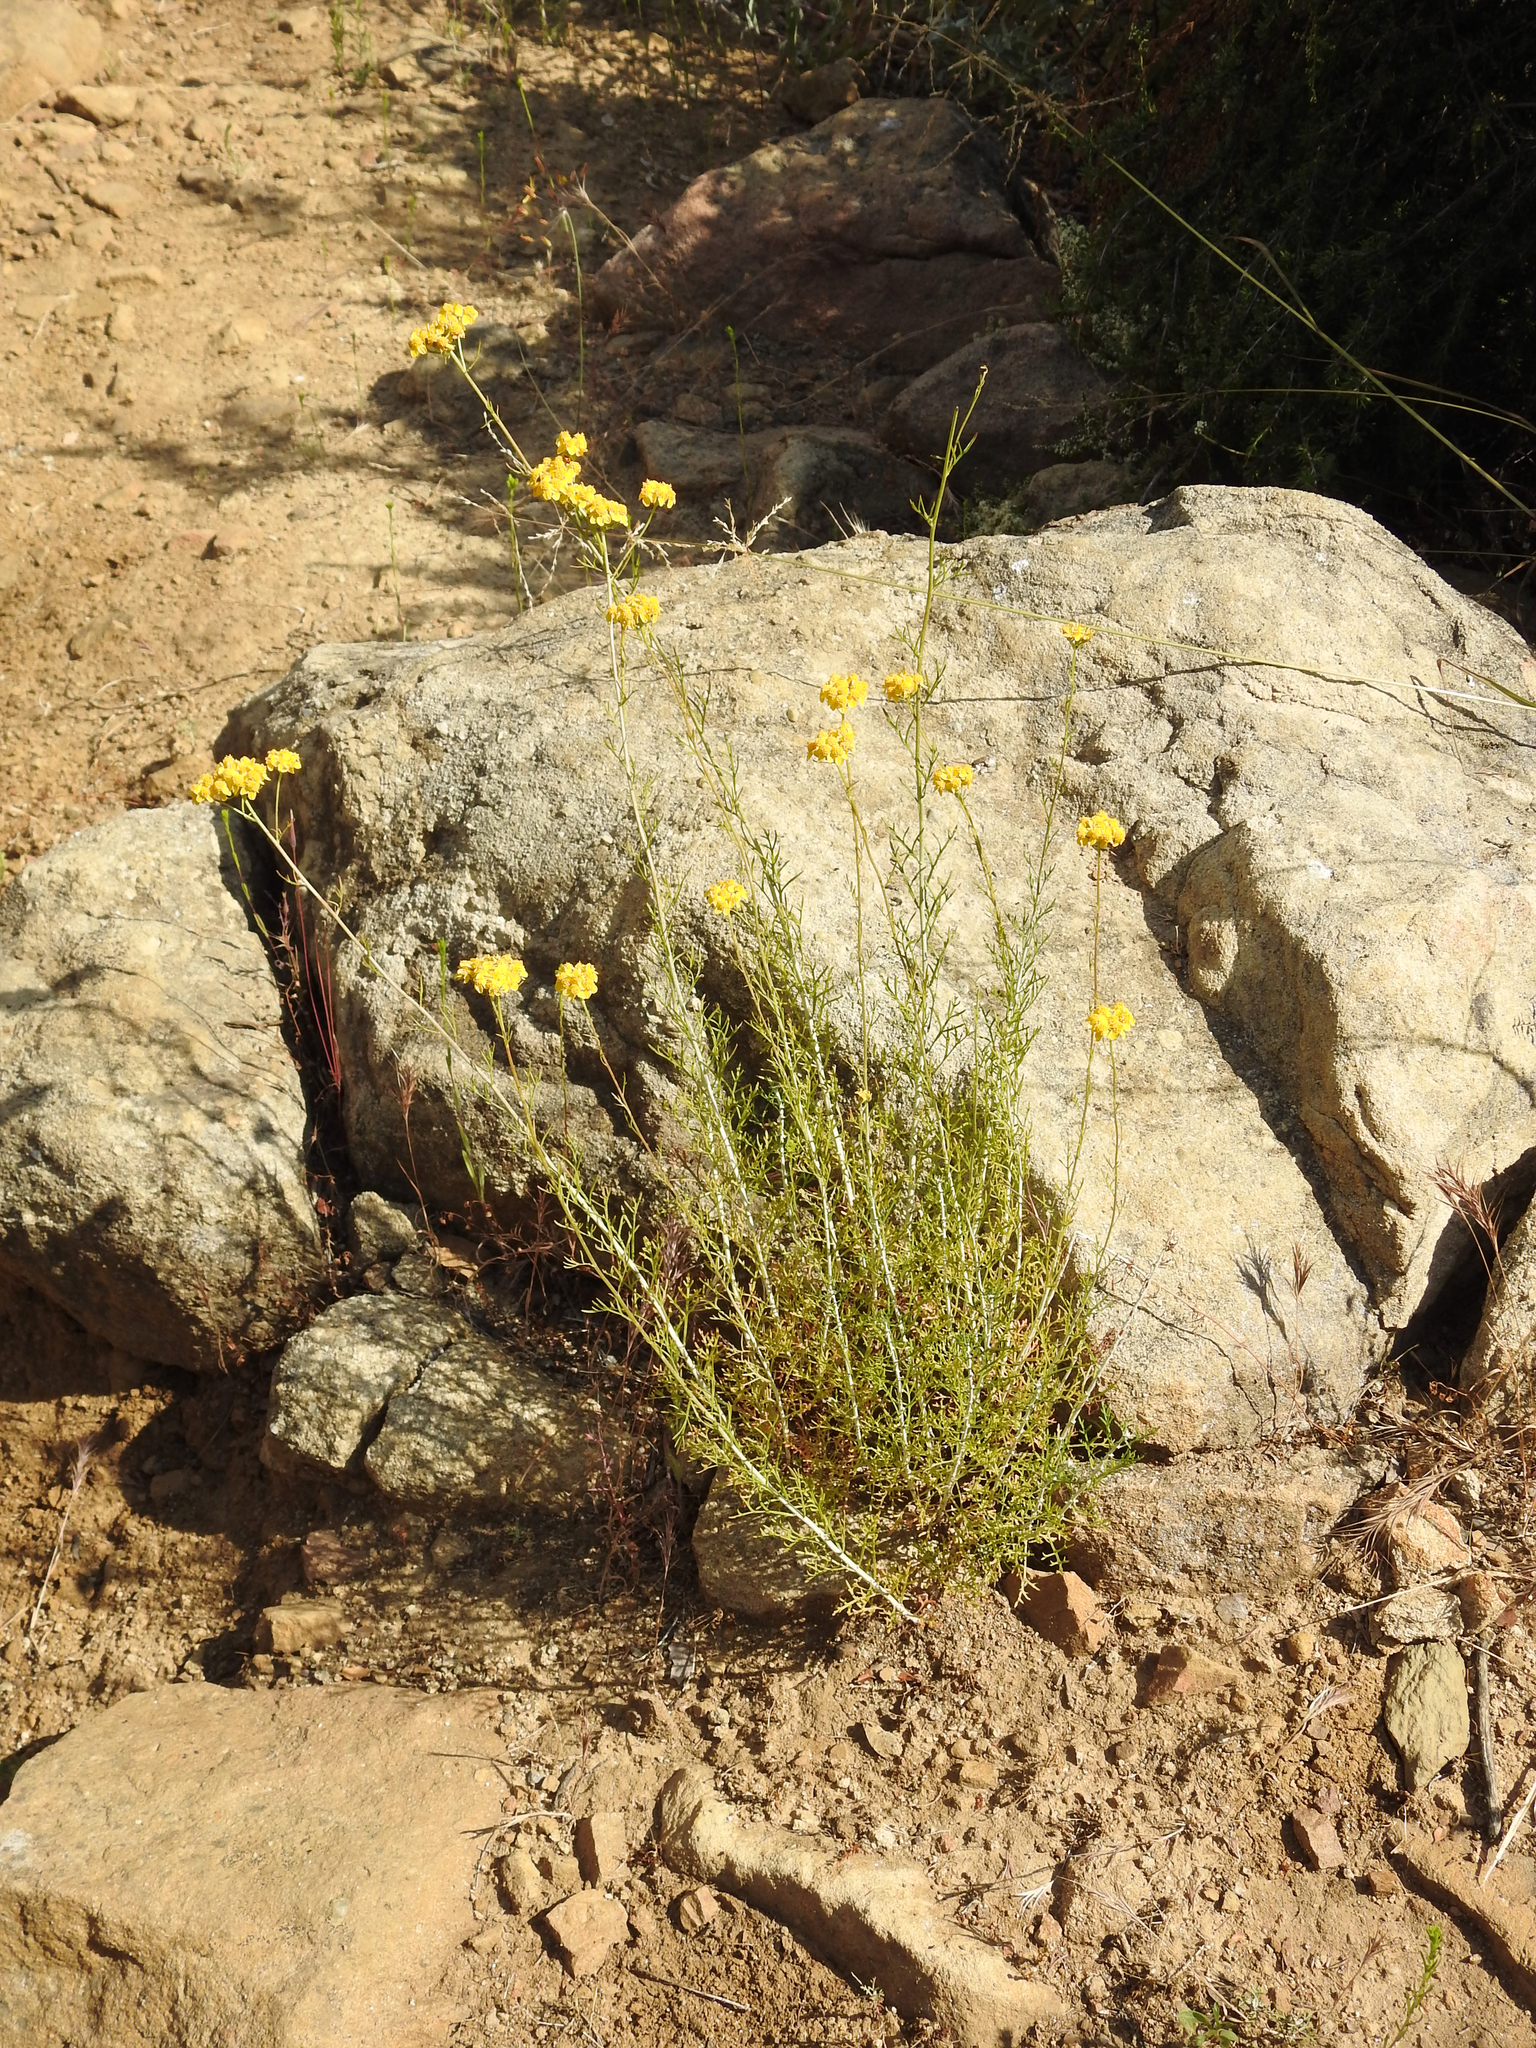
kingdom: Plantae
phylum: Tracheophyta
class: Magnoliopsida
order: Asterales
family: Asteraceae
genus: Eriophyllum
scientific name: Eriophyllum confertiflorum
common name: Golden-yarrow
